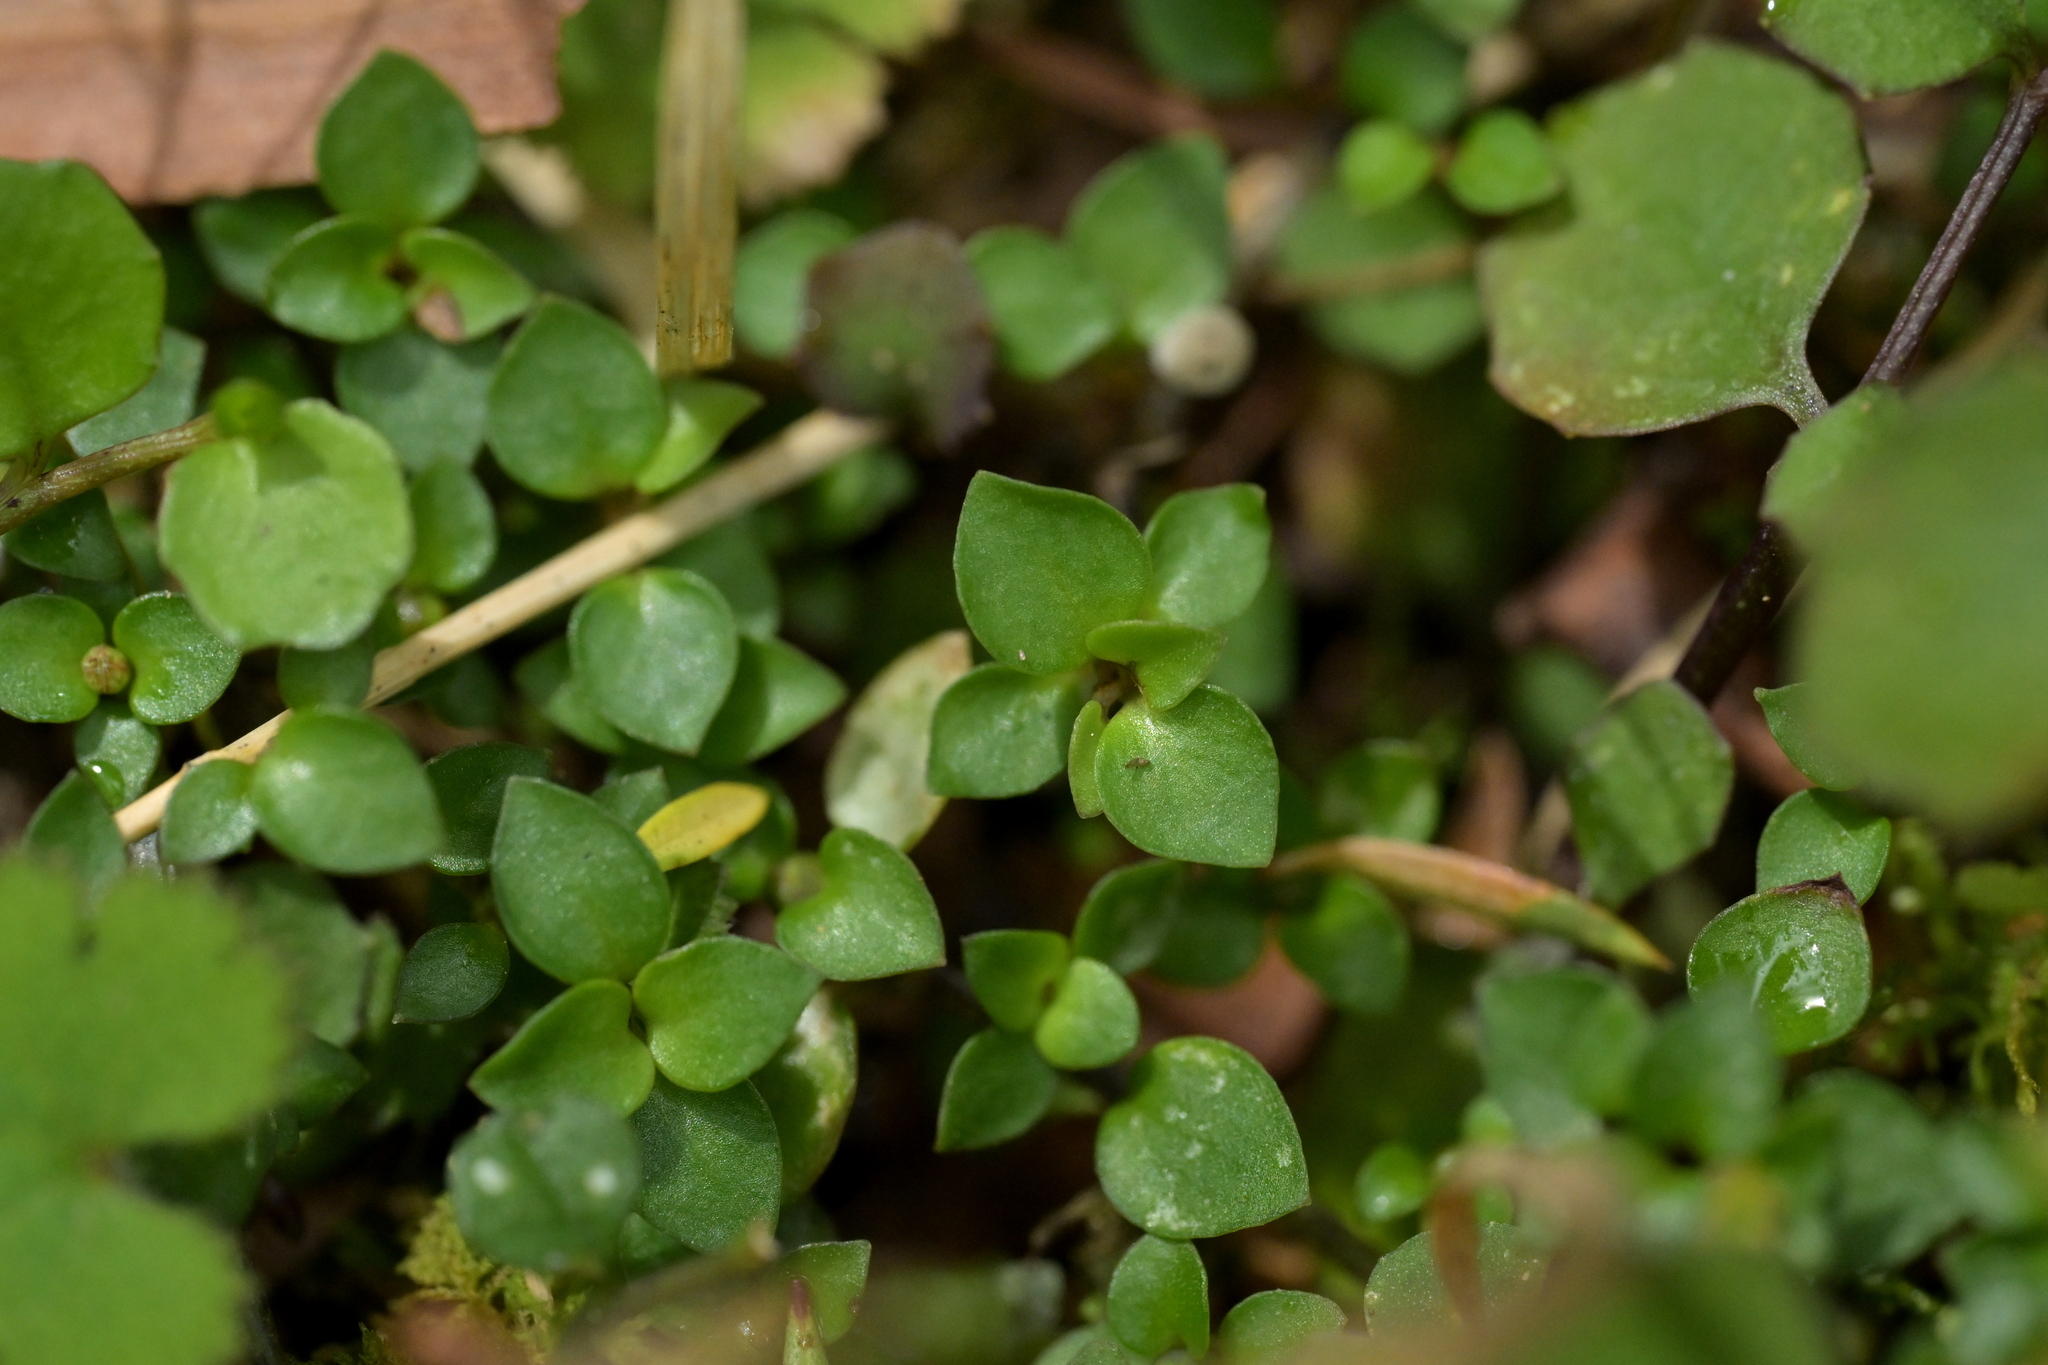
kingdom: Plantae
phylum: Tracheophyta
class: Magnoliopsida
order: Gentianales
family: Rubiaceae
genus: Nertera
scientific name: Nertera granadensis
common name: Beadplant
